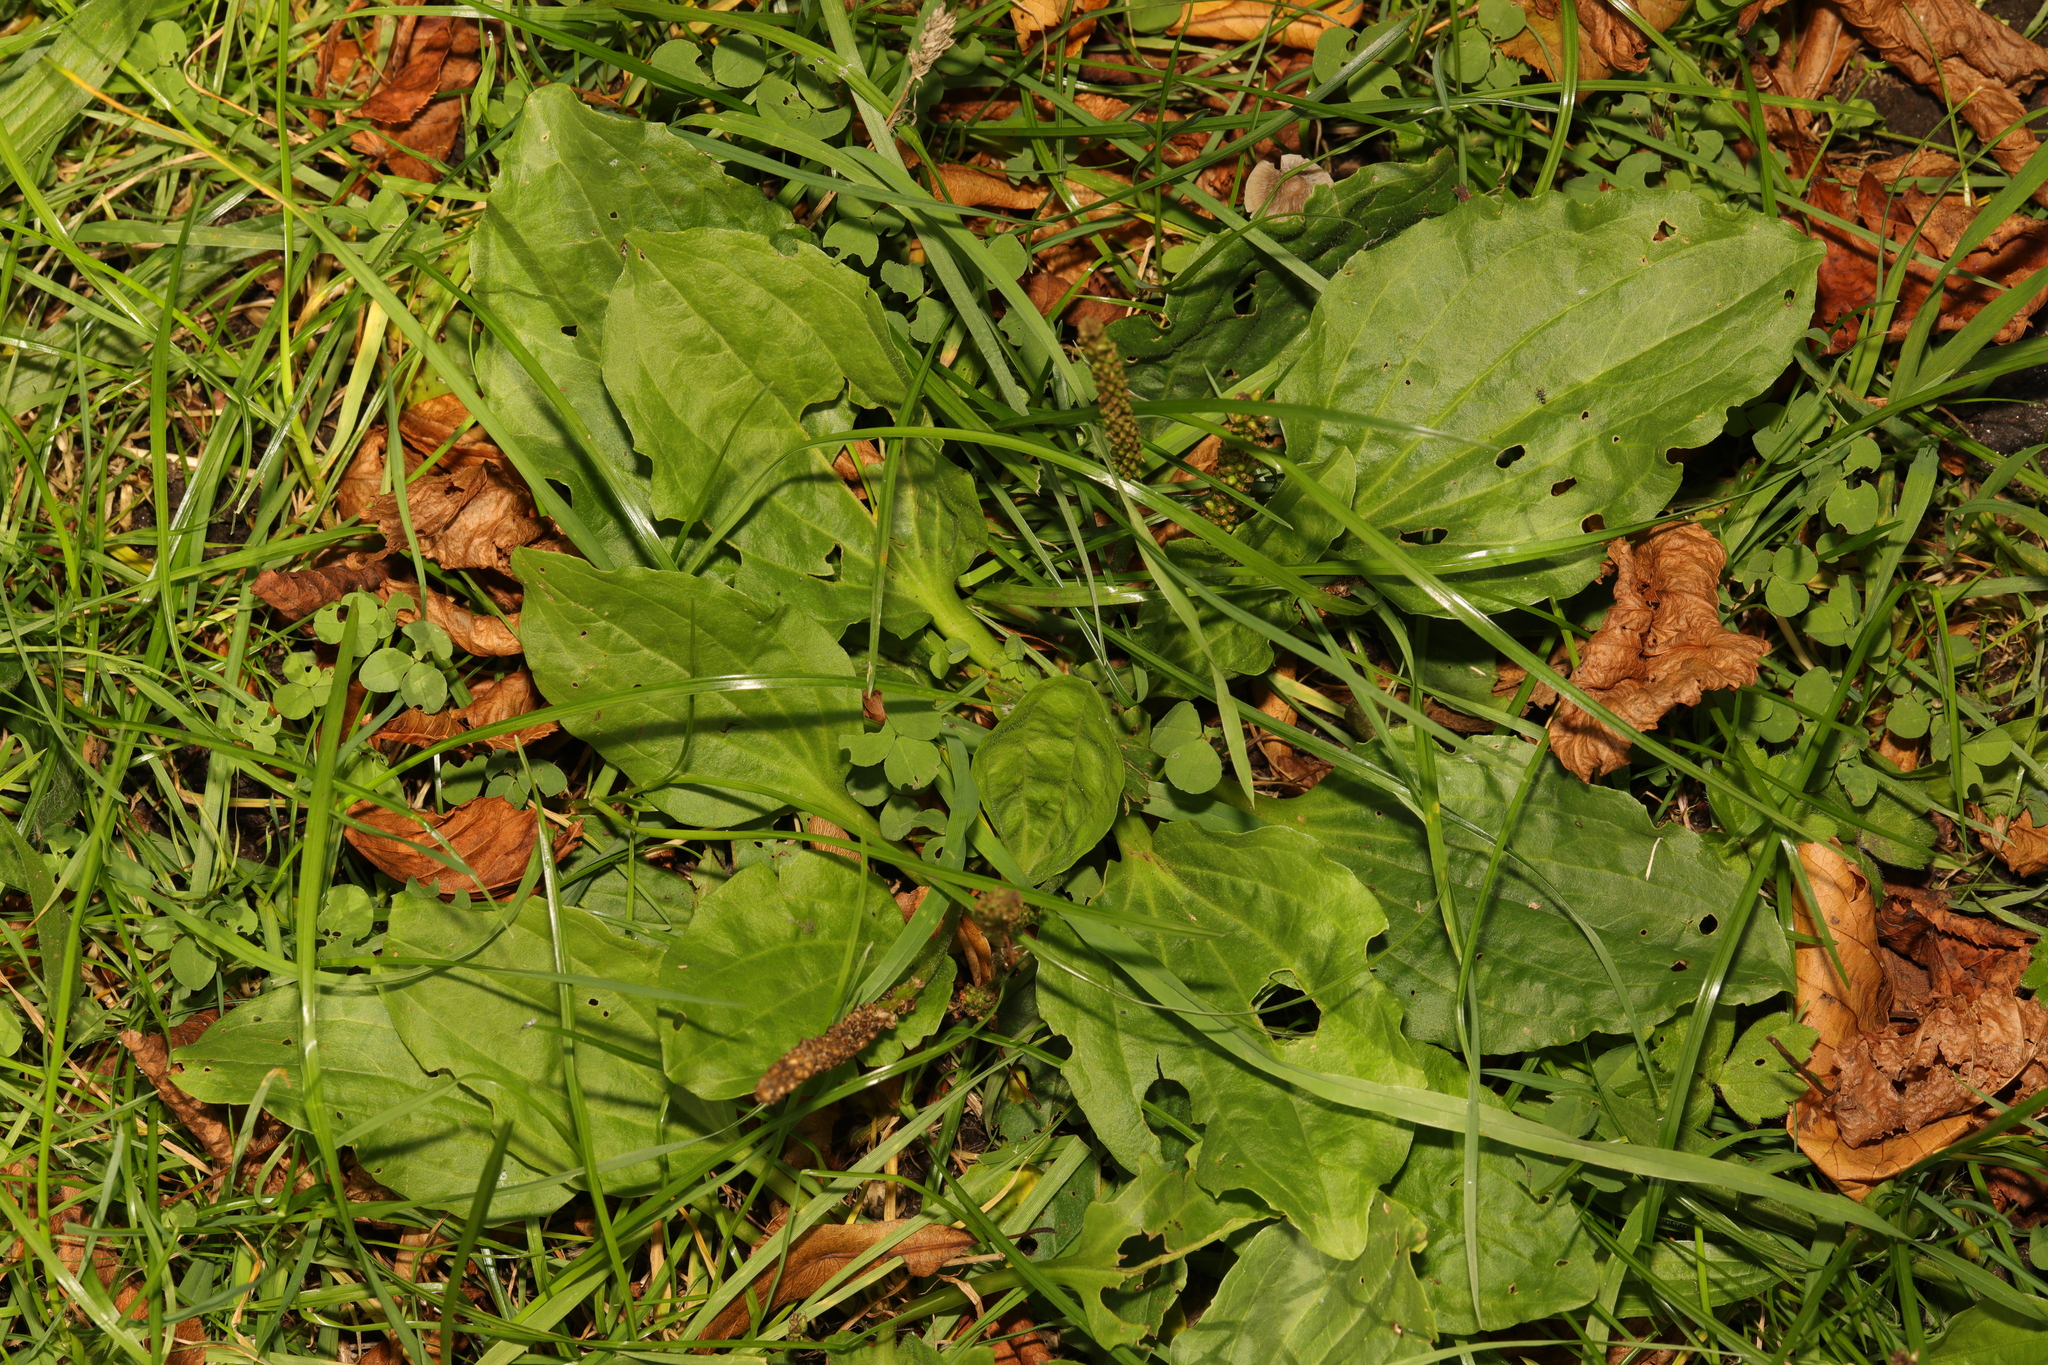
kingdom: Plantae
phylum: Tracheophyta
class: Magnoliopsida
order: Lamiales
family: Plantaginaceae
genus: Plantago
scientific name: Plantago major
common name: Common plantain
